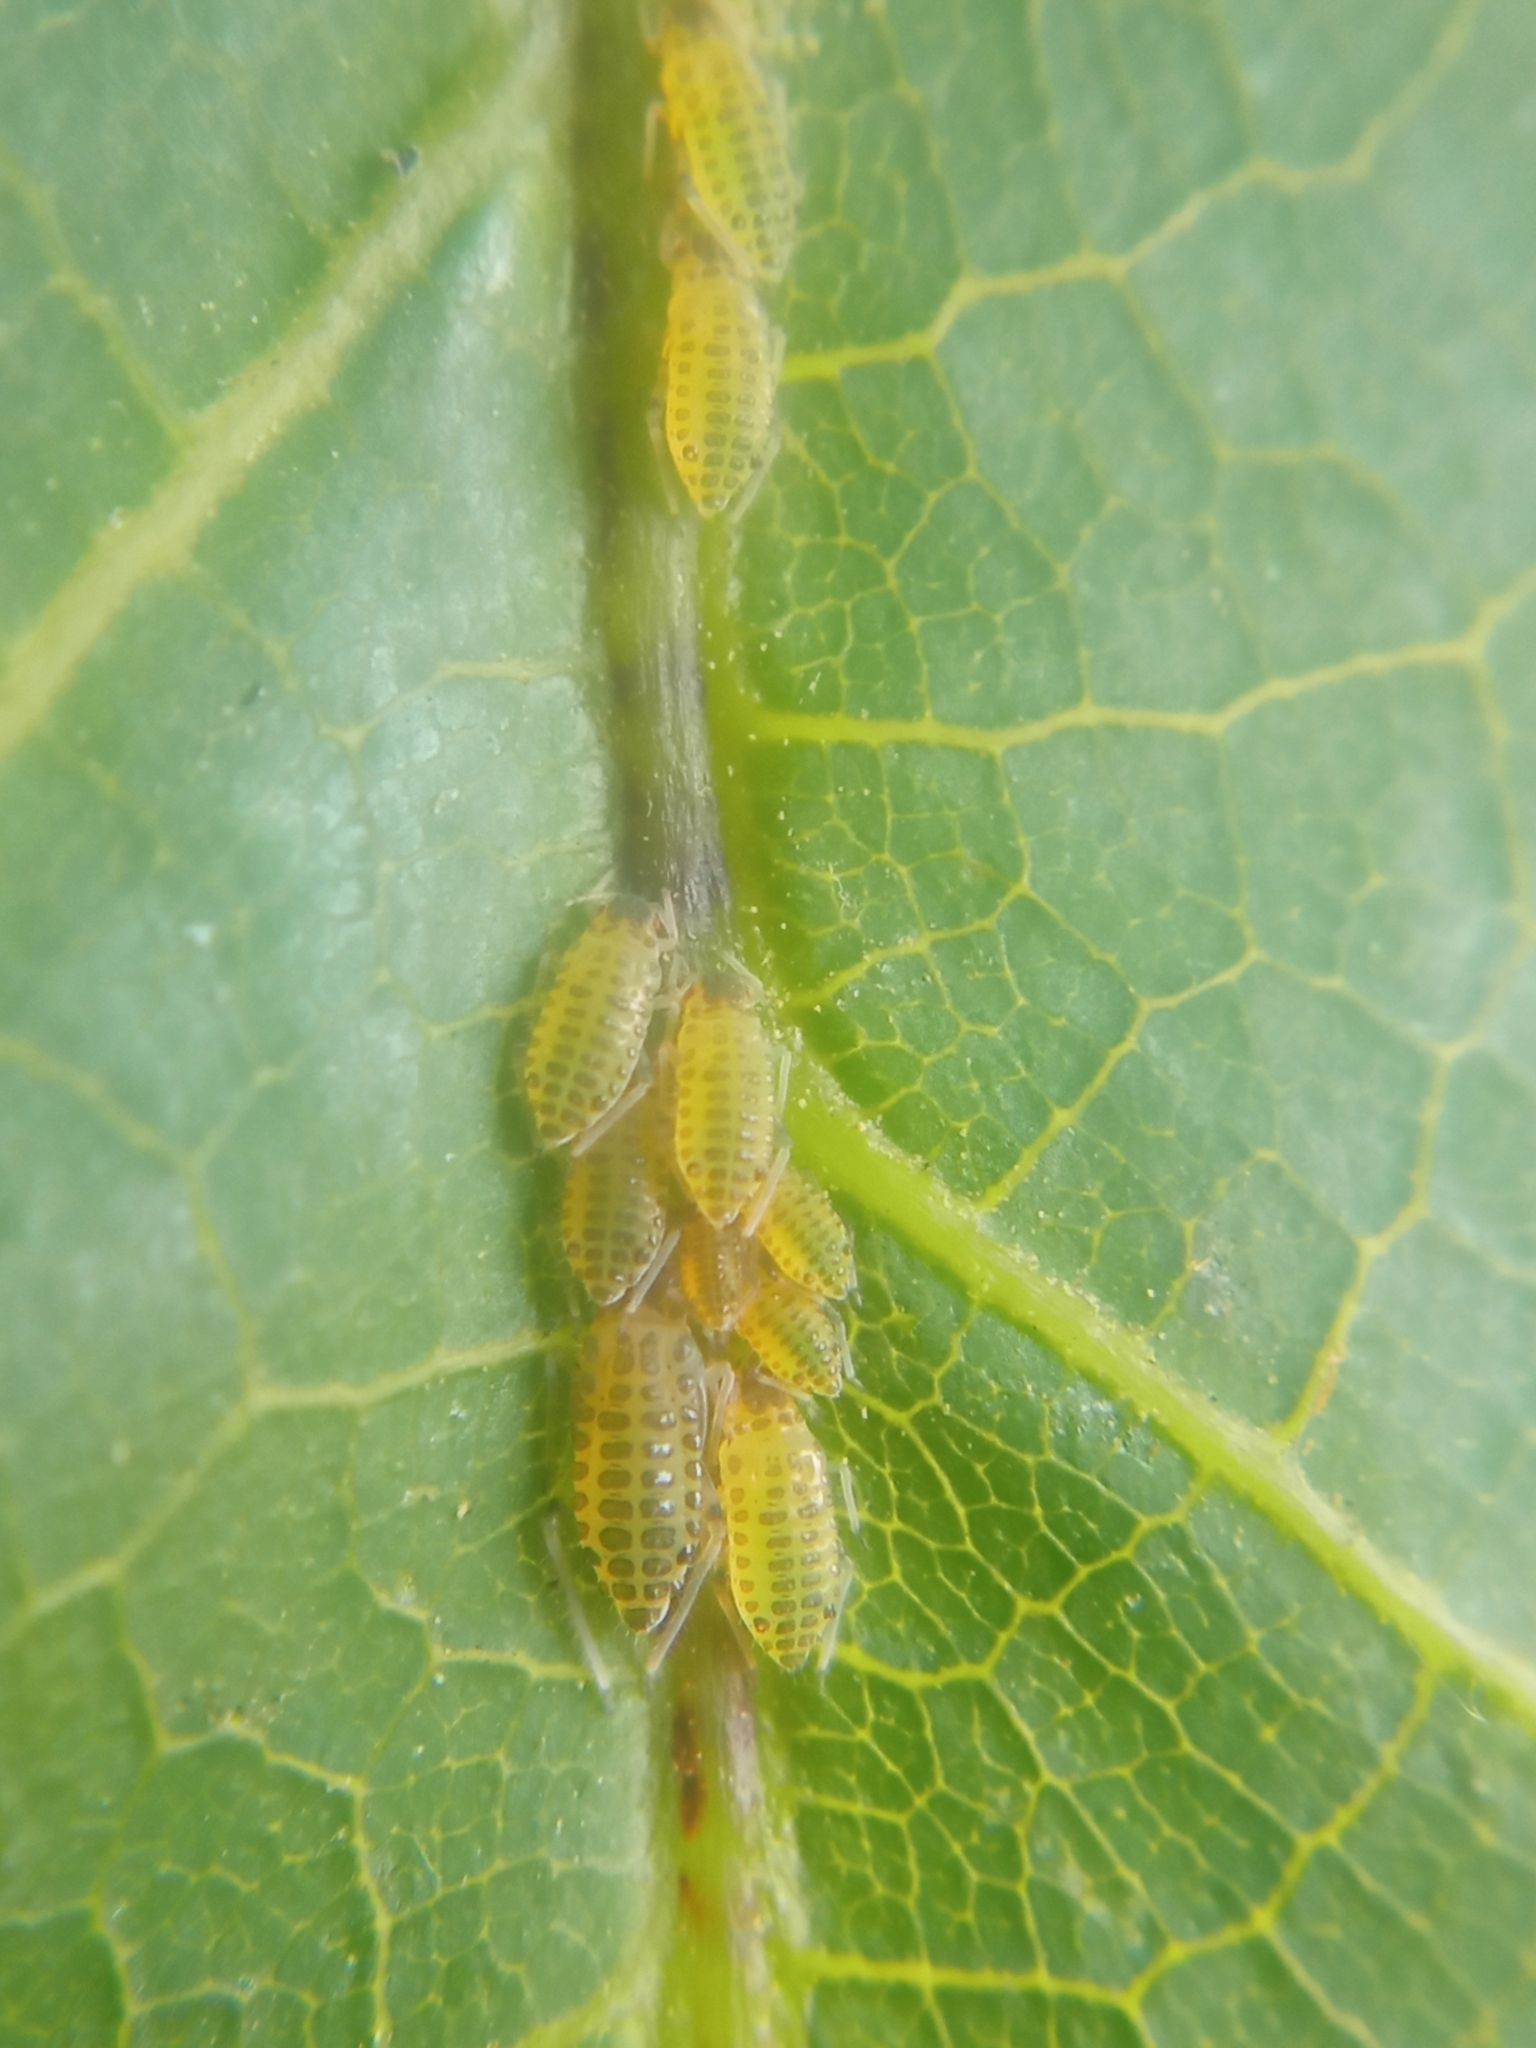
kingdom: Animalia
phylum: Arthropoda
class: Insecta
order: Hemiptera
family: Aphididae
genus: Panaphis
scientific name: Panaphis juglandis
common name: Large walnut aphid
